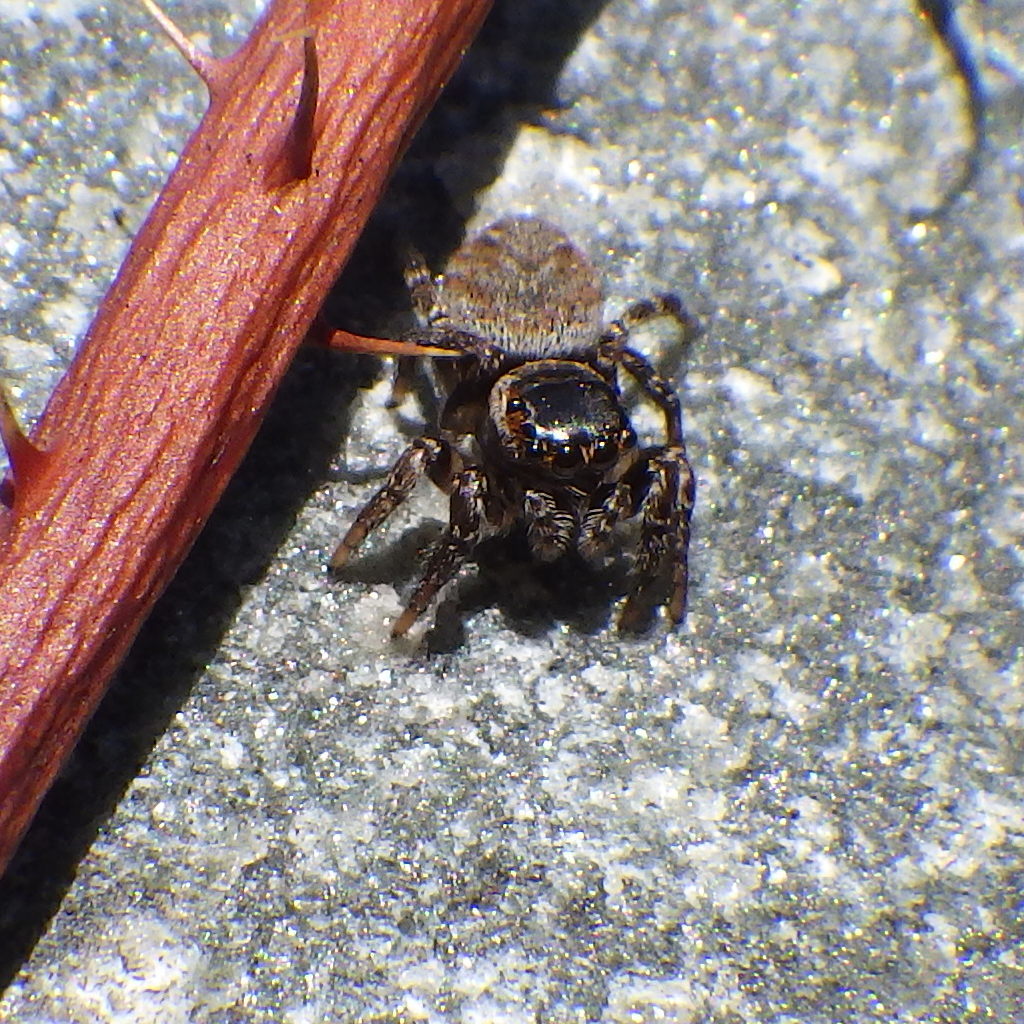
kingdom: Animalia
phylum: Arthropoda
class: Arachnida
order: Araneae
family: Salticidae
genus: Evarcha
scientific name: Evarcha hoyi
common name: Hoy's jumping spider
